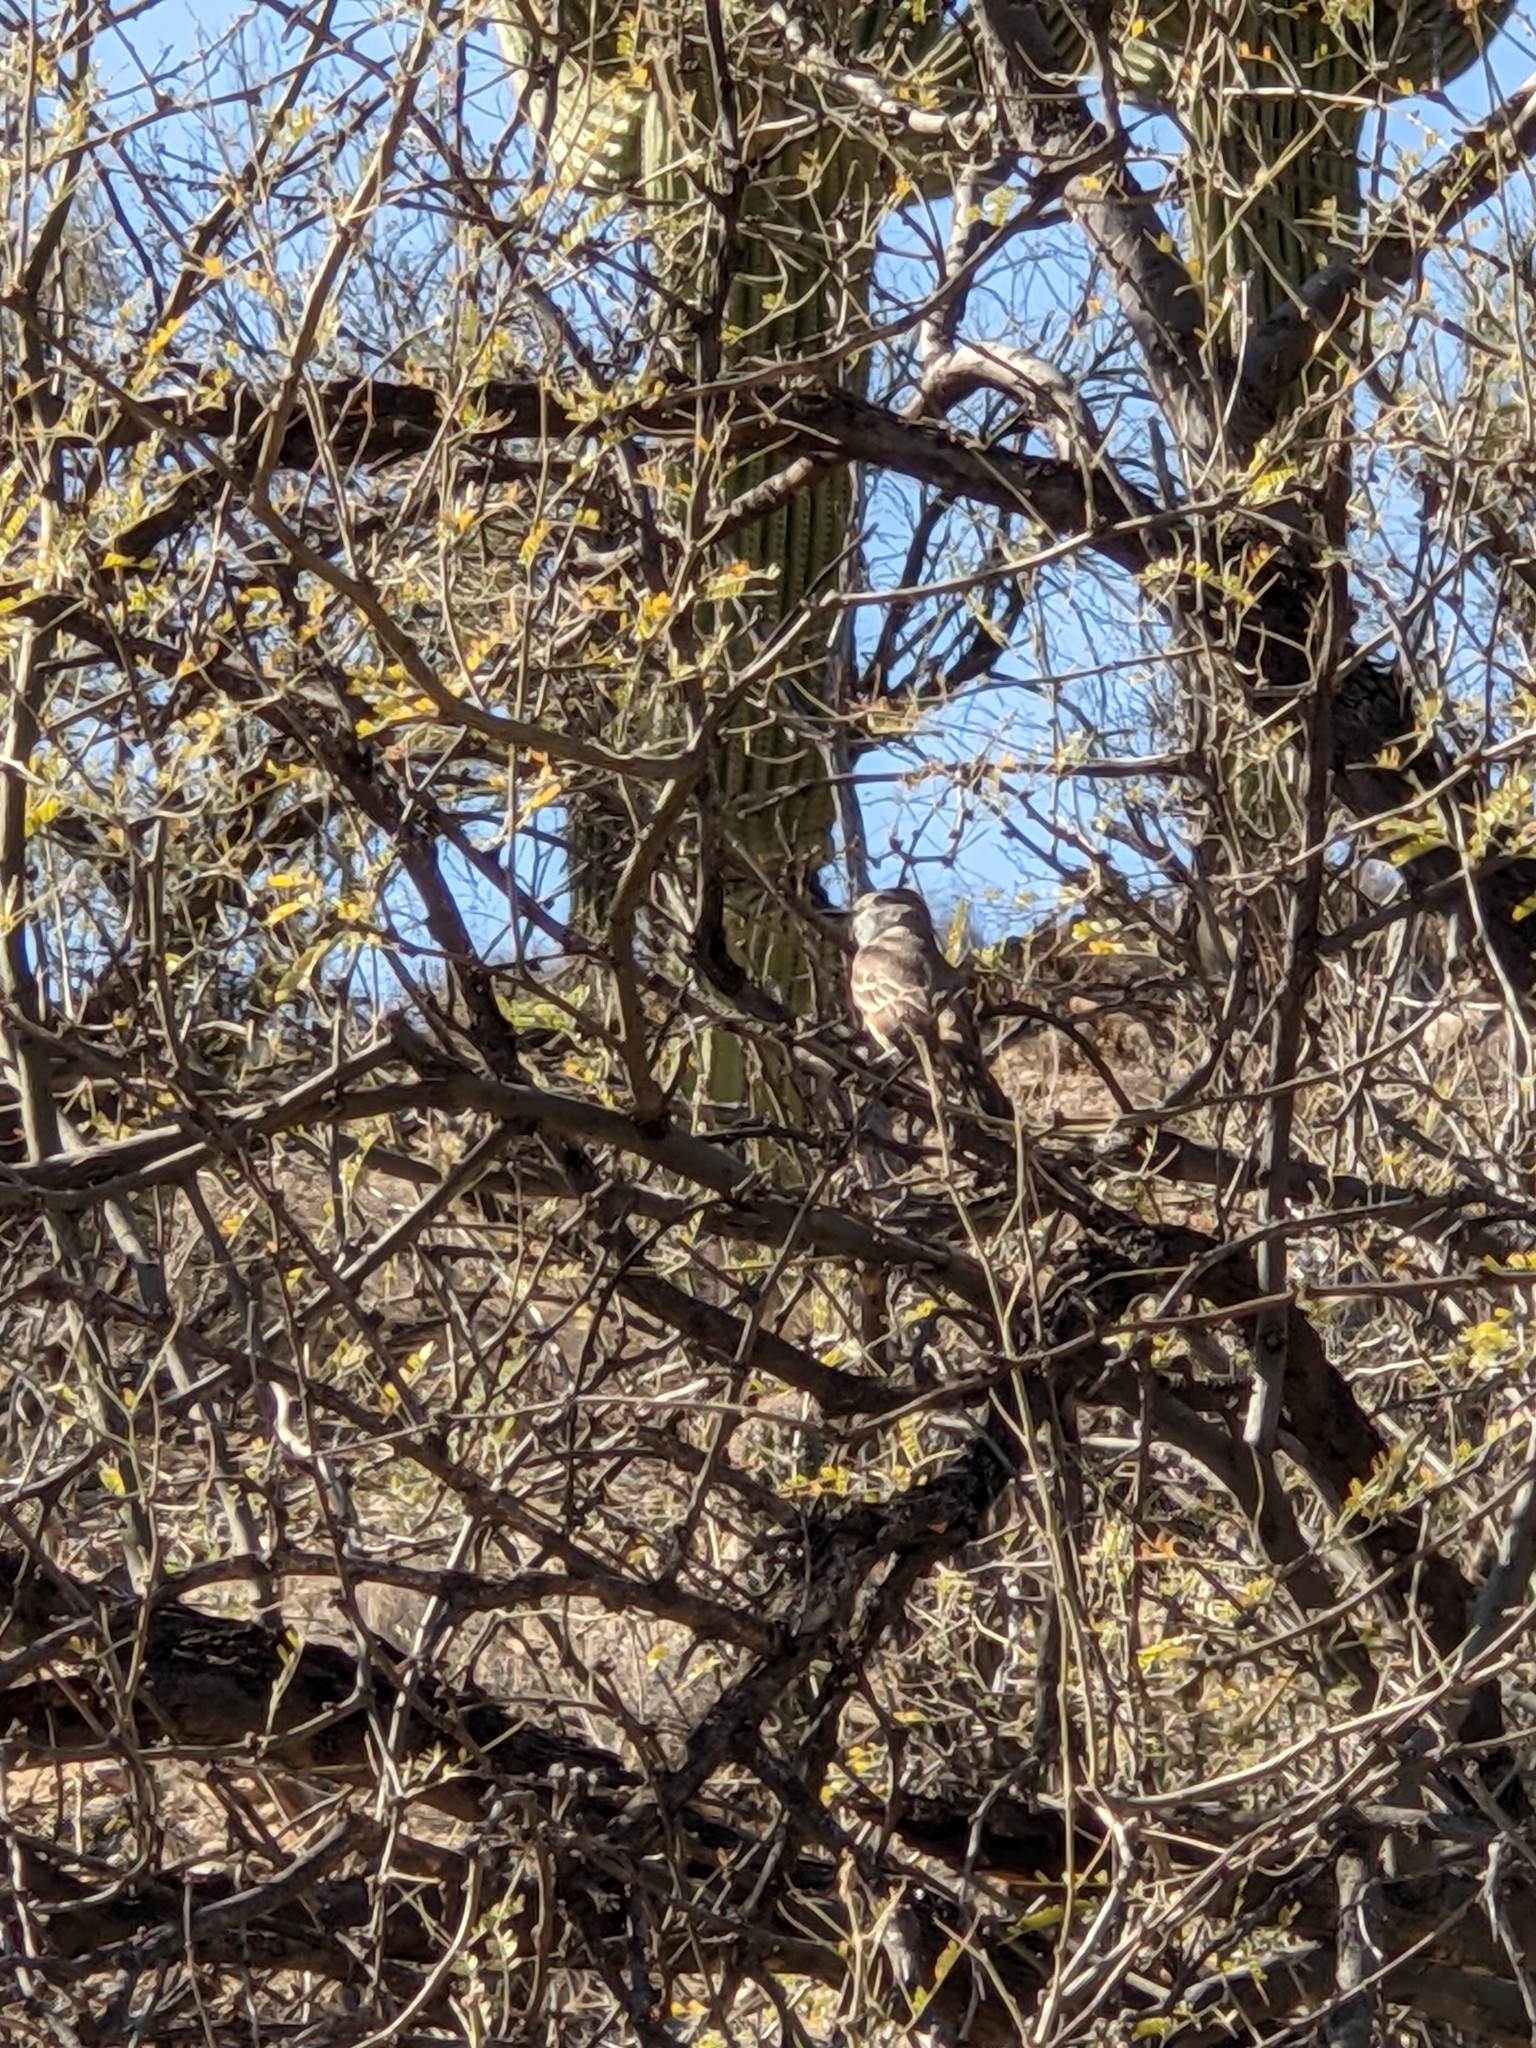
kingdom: Animalia
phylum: Chordata
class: Aves
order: Passeriformes
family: Tyrannidae
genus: Myiarchus
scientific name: Myiarchus cinerascens
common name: Ash-throated flycatcher
